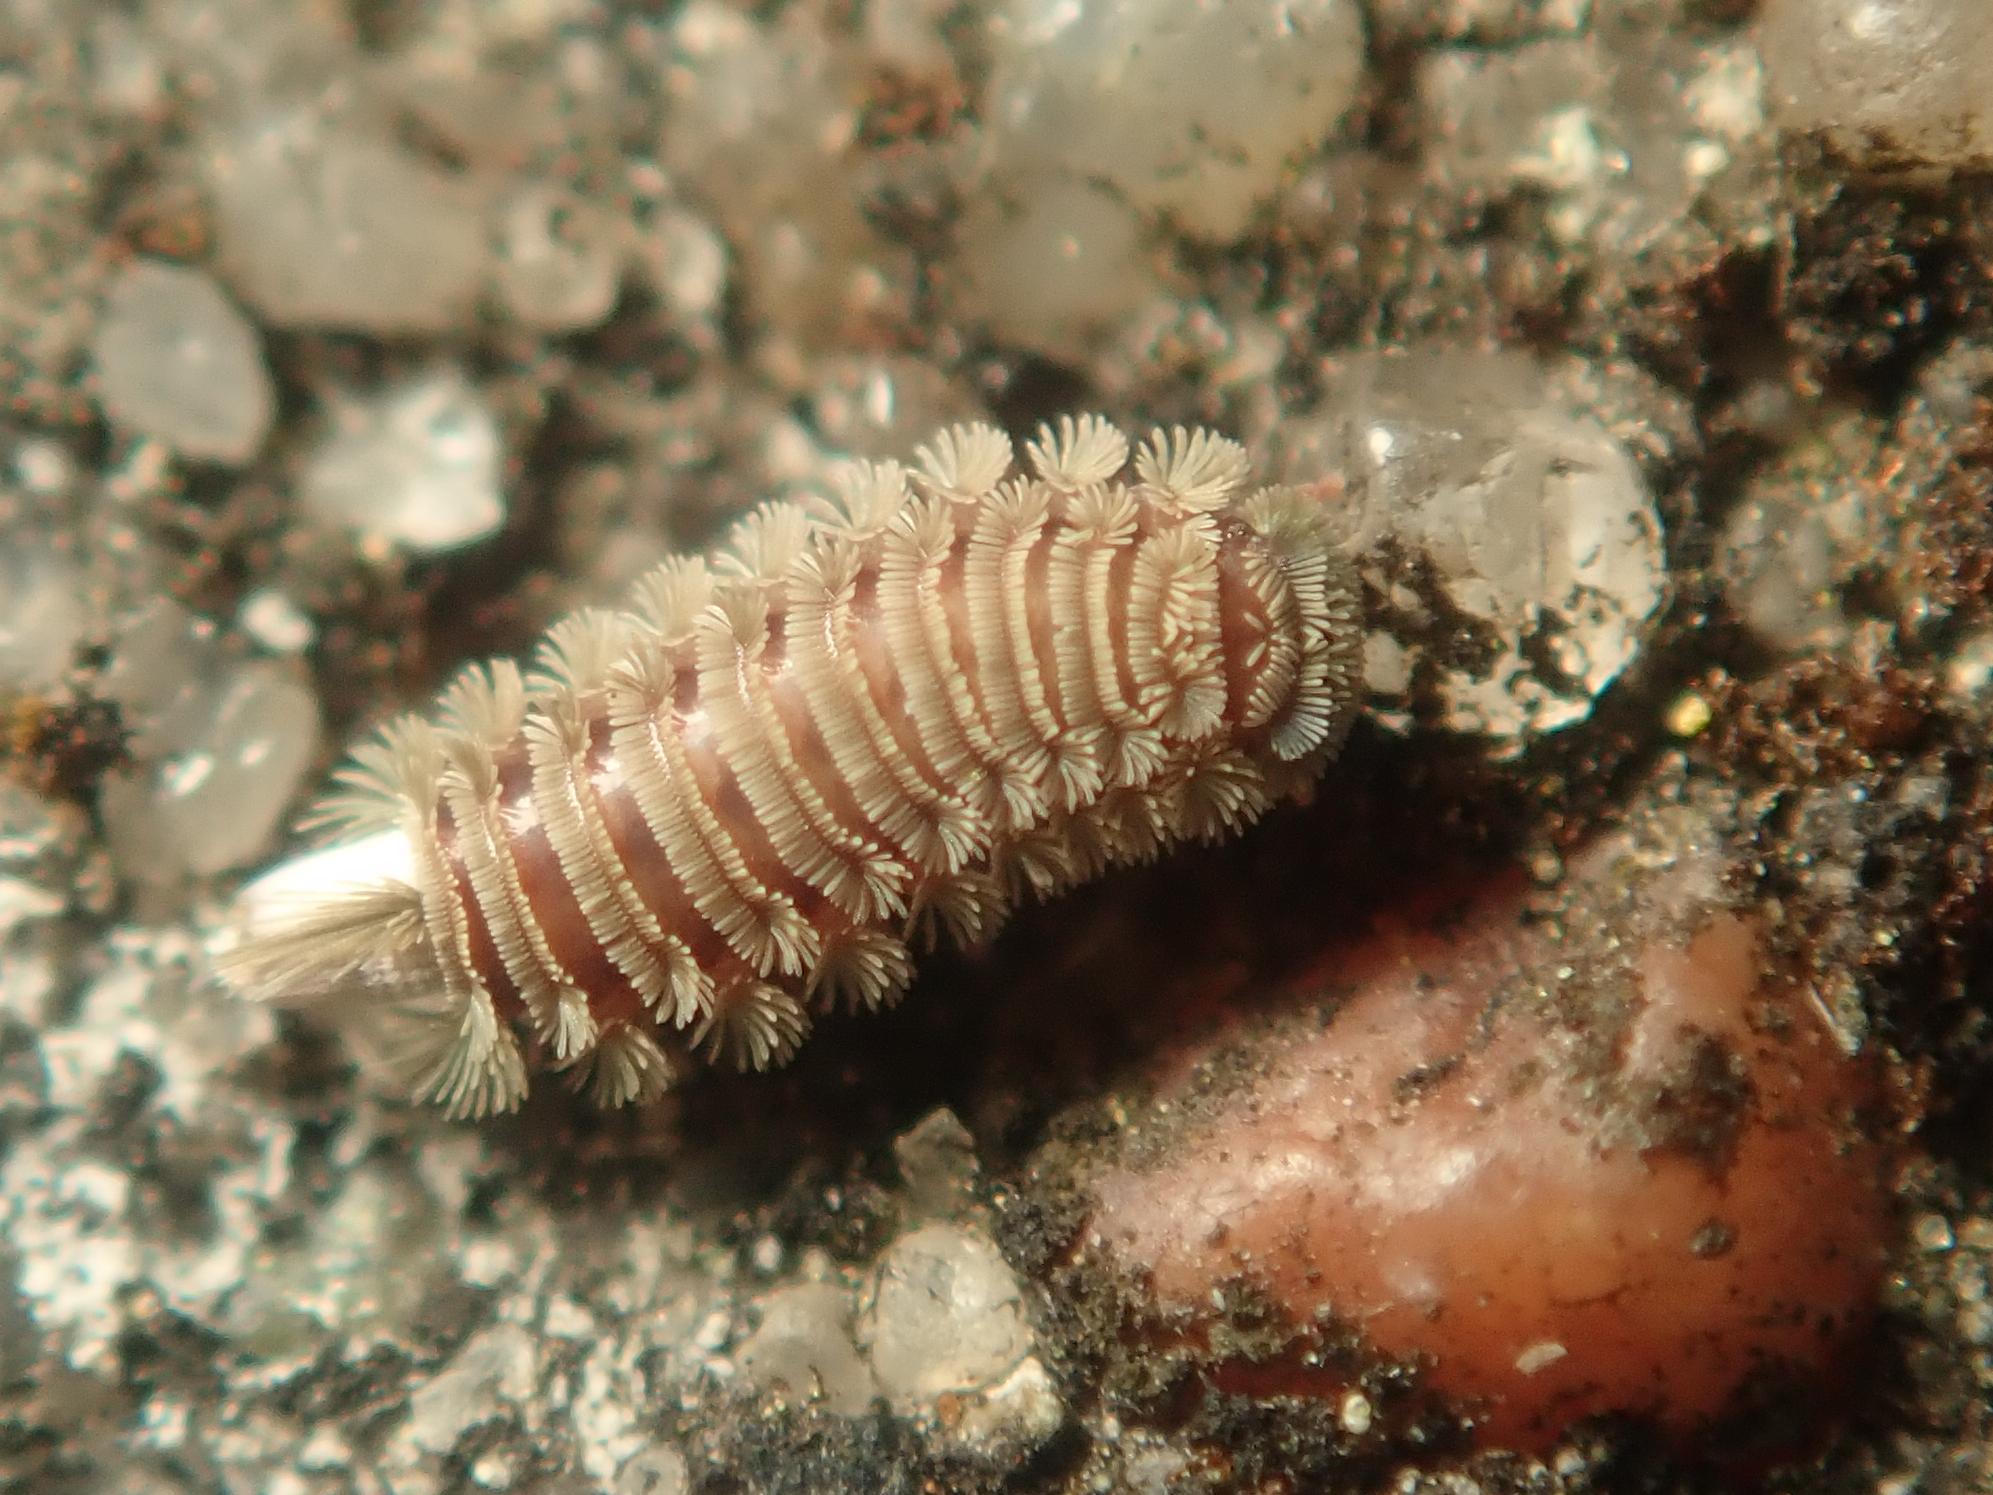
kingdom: Animalia
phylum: Arthropoda
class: Diplopoda
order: Polyxenida
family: Polyxenidae
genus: Polyxenus
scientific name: Polyxenus lagurus
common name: Bristly millipede
